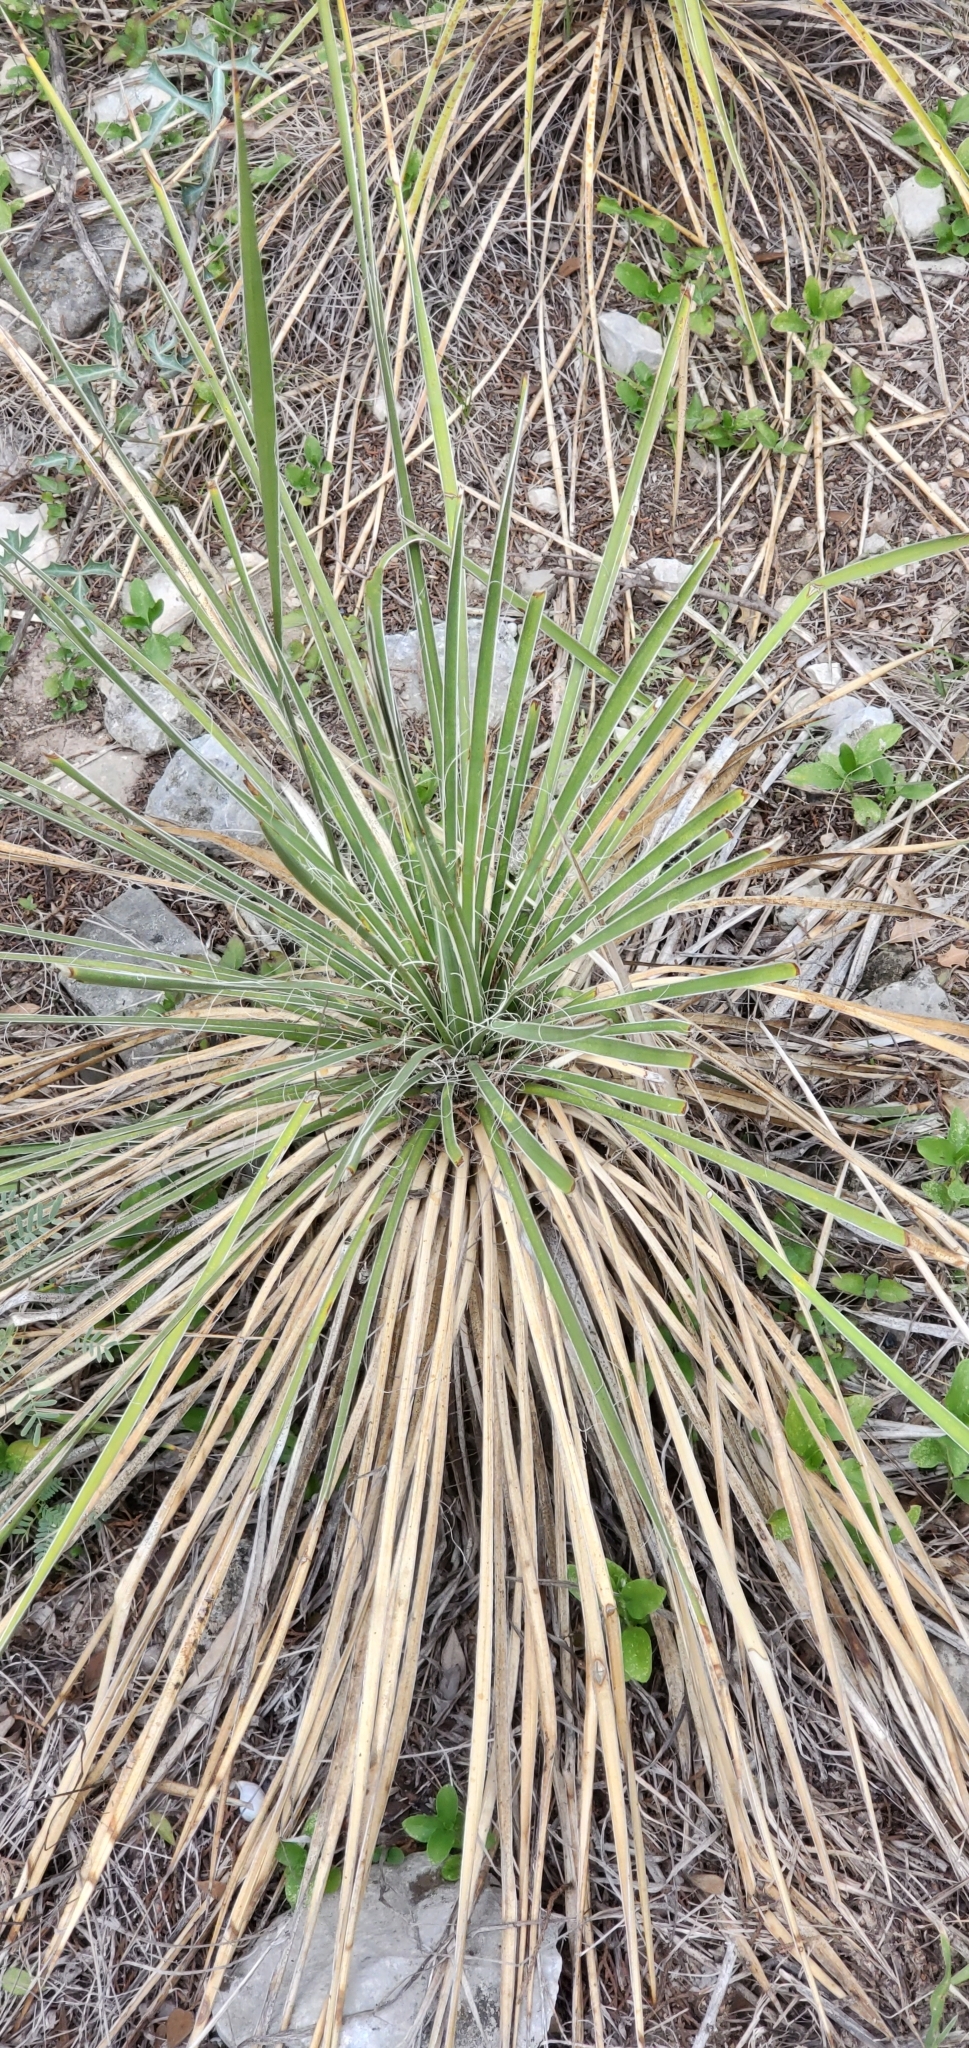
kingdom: Plantae
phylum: Tracheophyta
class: Liliopsida
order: Asparagales
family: Asparagaceae
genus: Yucca
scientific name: Yucca constricta
